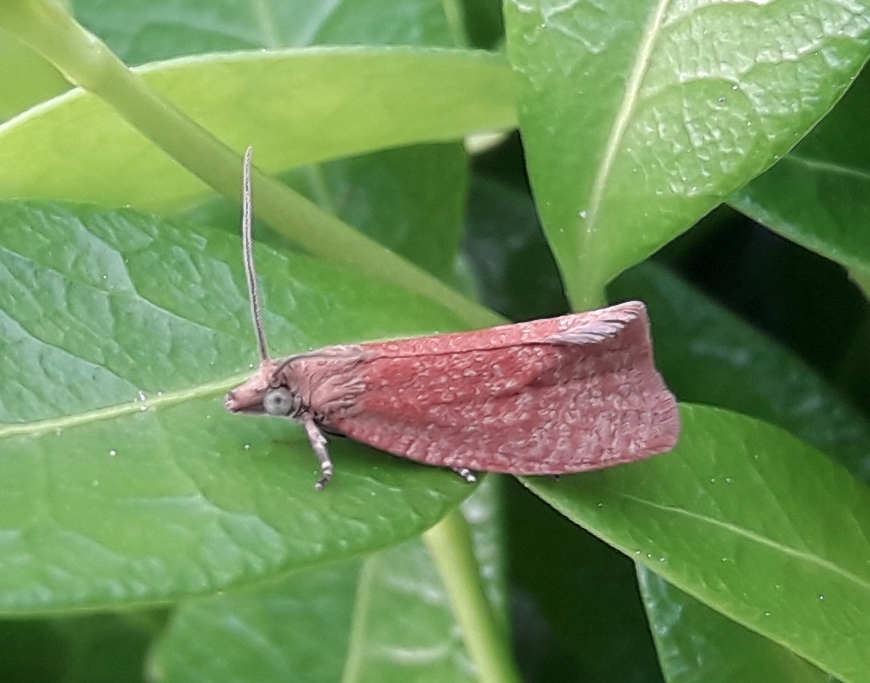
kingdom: Animalia
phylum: Arthropoda
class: Insecta
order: Lepidoptera
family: Tortricidae
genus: Celypha
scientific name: Celypha rufana
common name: Lakes marble
